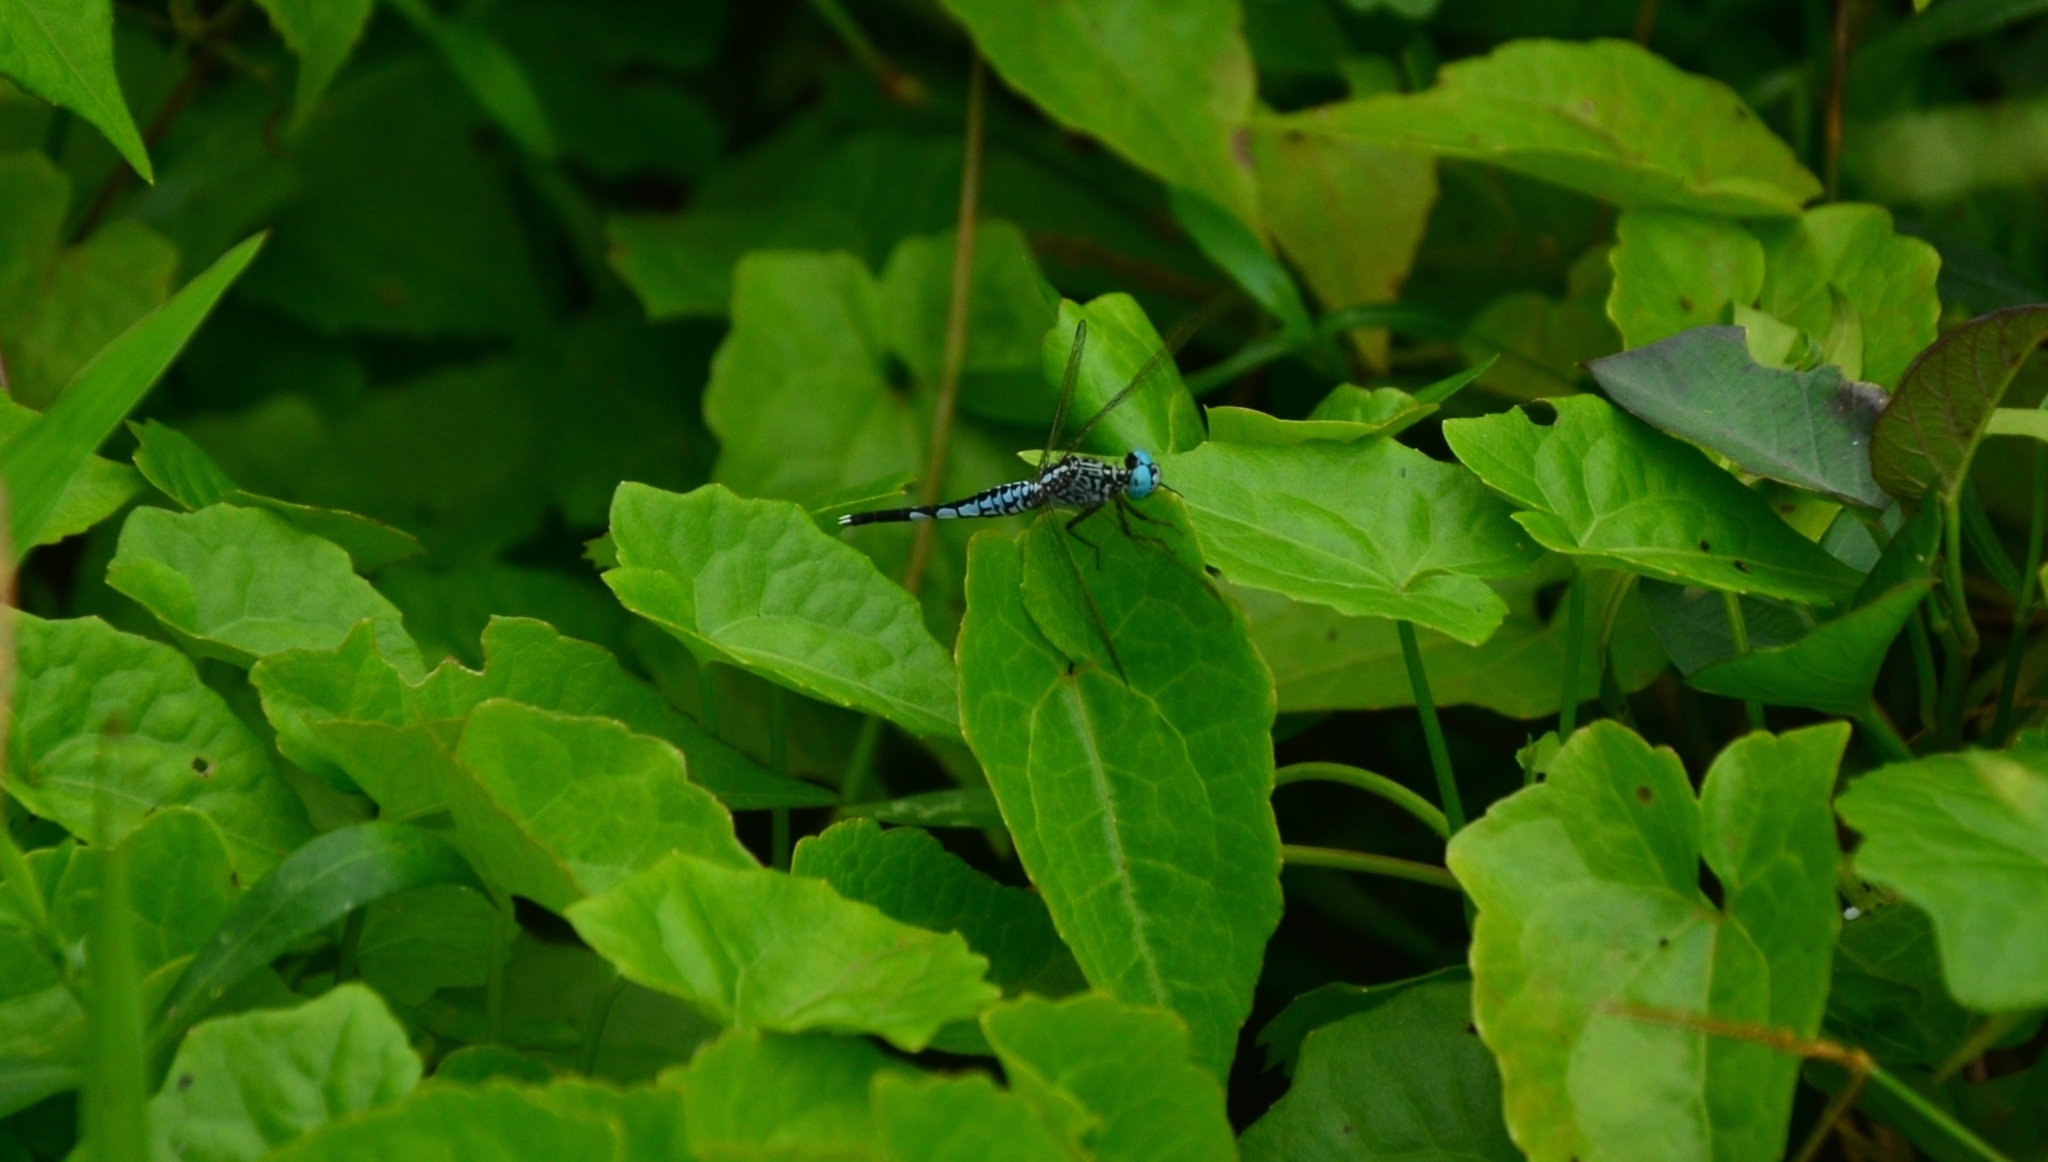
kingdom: Animalia
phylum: Arthropoda
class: Insecta
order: Odonata
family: Libellulidae
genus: Acisoma
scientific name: Acisoma panorpoides
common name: Asian pintail
